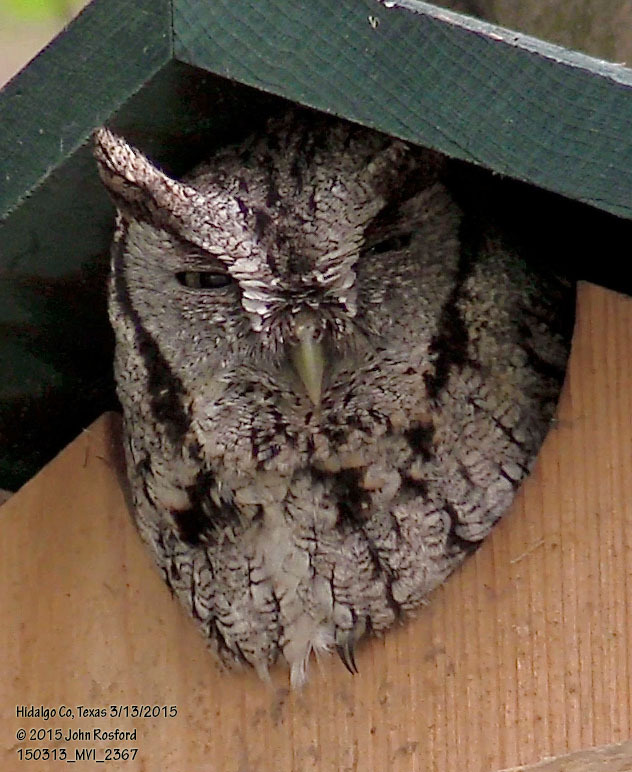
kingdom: Animalia
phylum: Chordata
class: Aves
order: Strigiformes
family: Strigidae
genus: Megascops
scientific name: Megascops asio
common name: Eastern screech-owl
